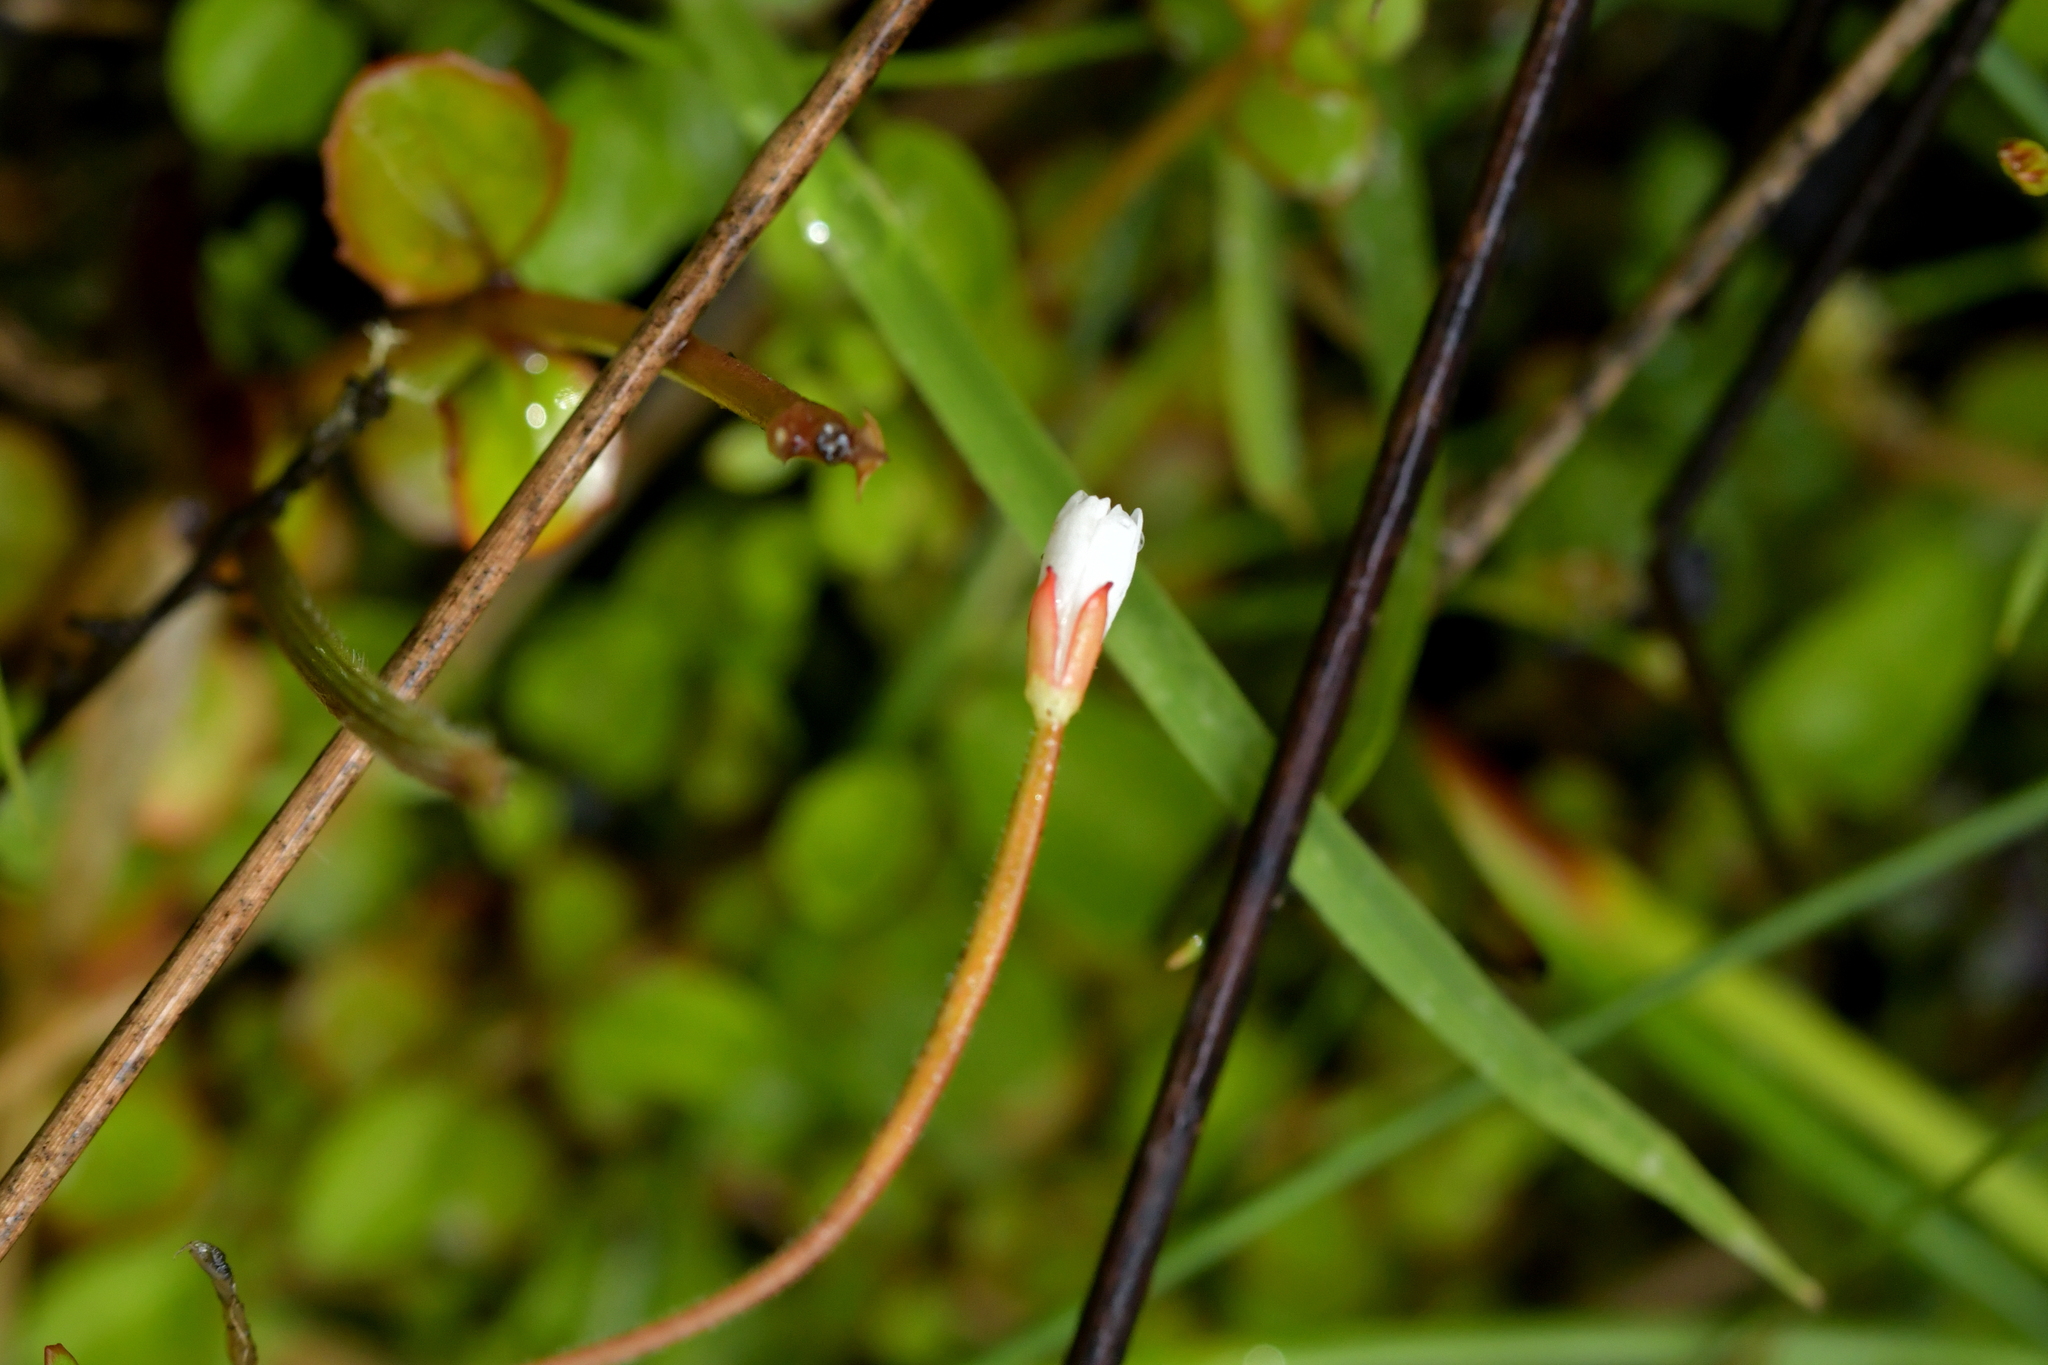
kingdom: Plantae
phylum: Tracheophyta
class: Magnoliopsida
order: Myrtales
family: Onagraceae
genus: Epilobium
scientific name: Epilobium nummularifolium
